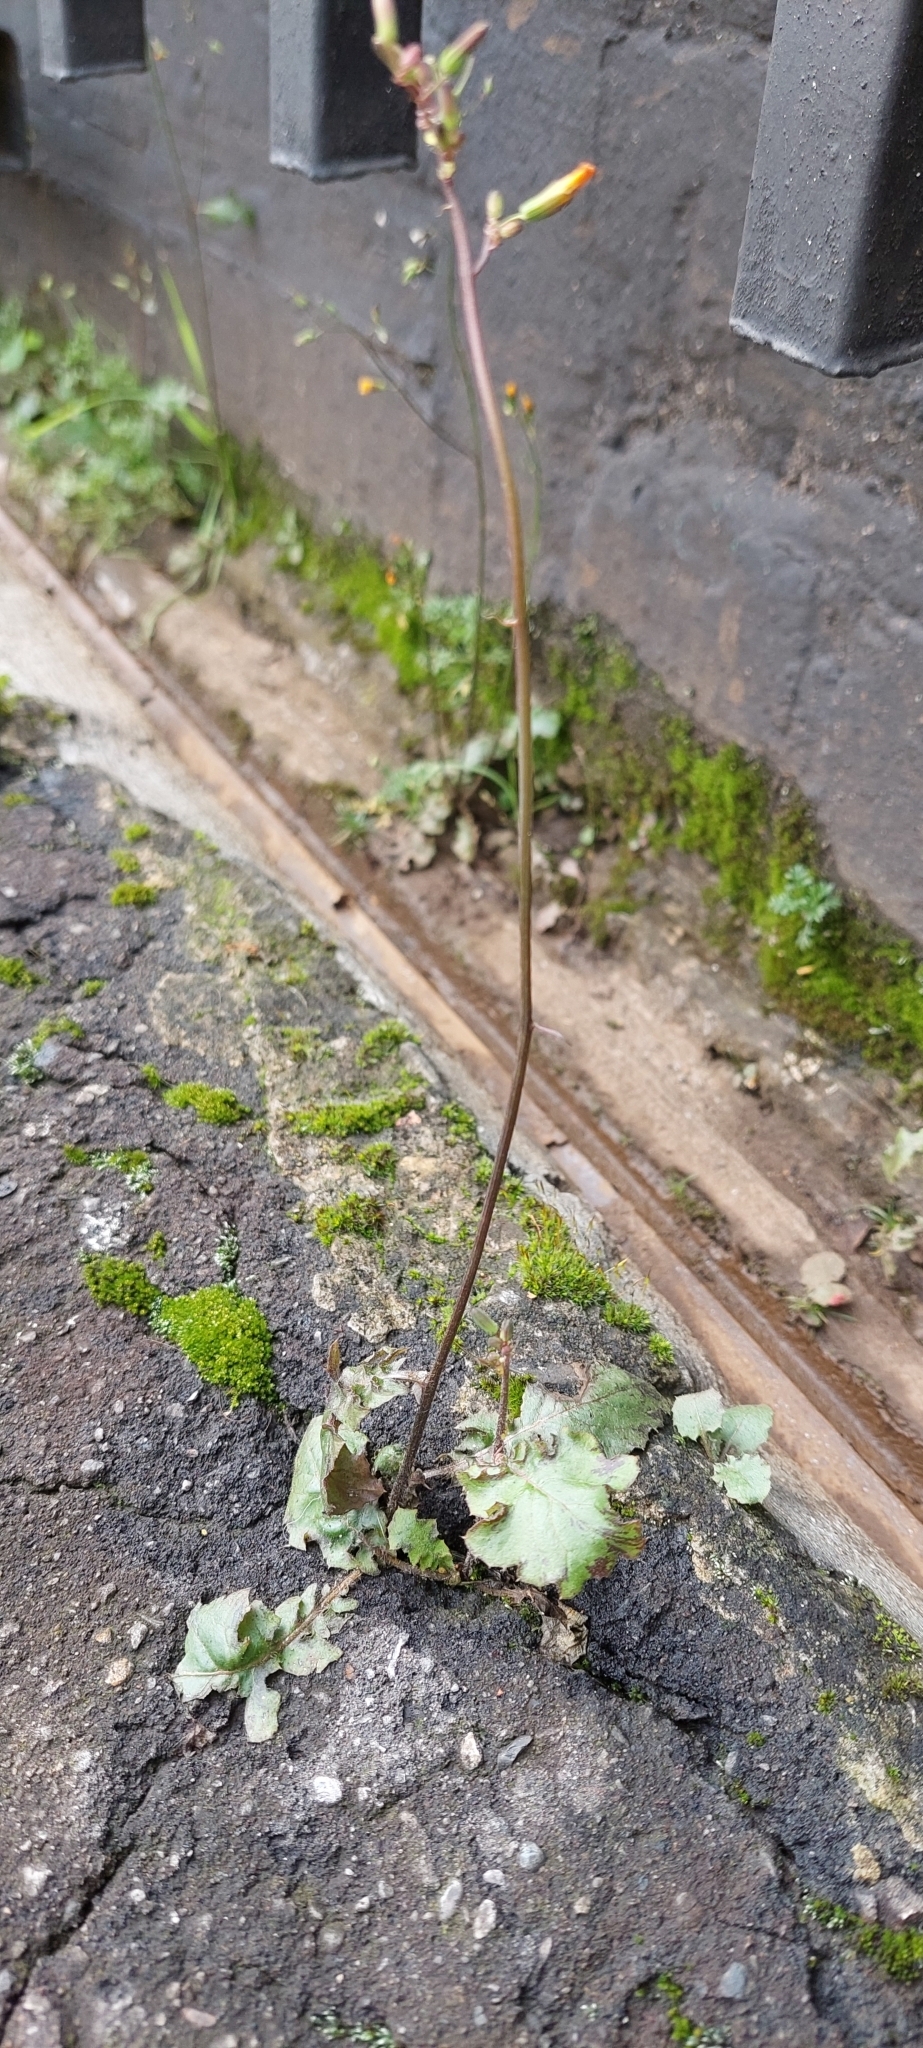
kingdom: Plantae
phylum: Tracheophyta
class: Magnoliopsida
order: Asterales
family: Asteraceae
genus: Youngia
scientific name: Youngia japonica
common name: Oriental false hawksbeard
